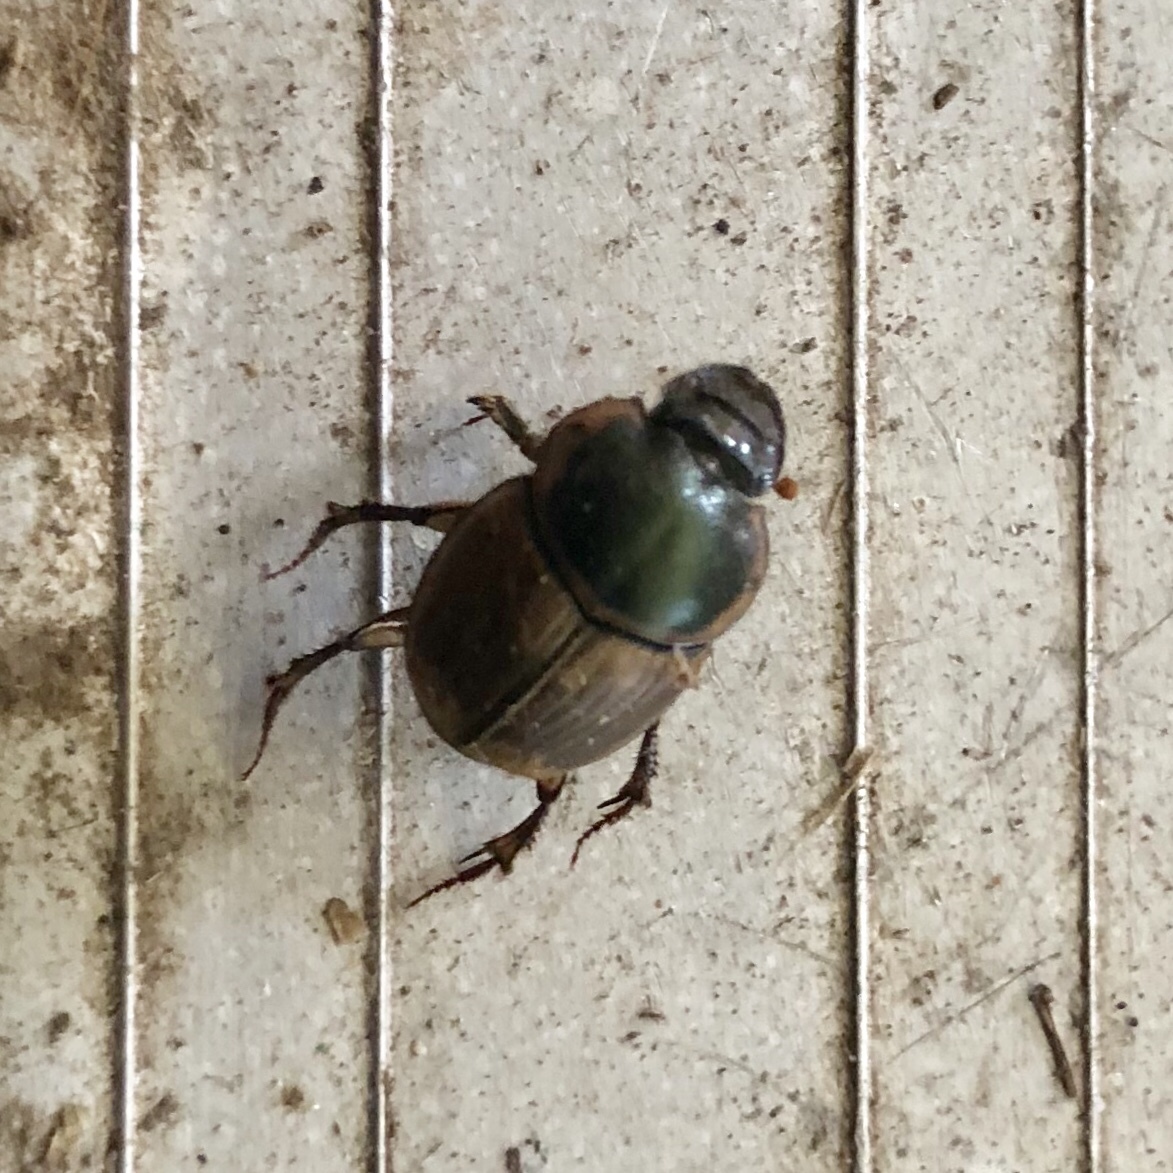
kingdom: Animalia
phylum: Arthropoda
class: Insecta
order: Coleoptera
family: Scarabaeidae
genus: Digitonthophagus
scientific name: Digitonthophagus gazella
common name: Brown dung beetle
